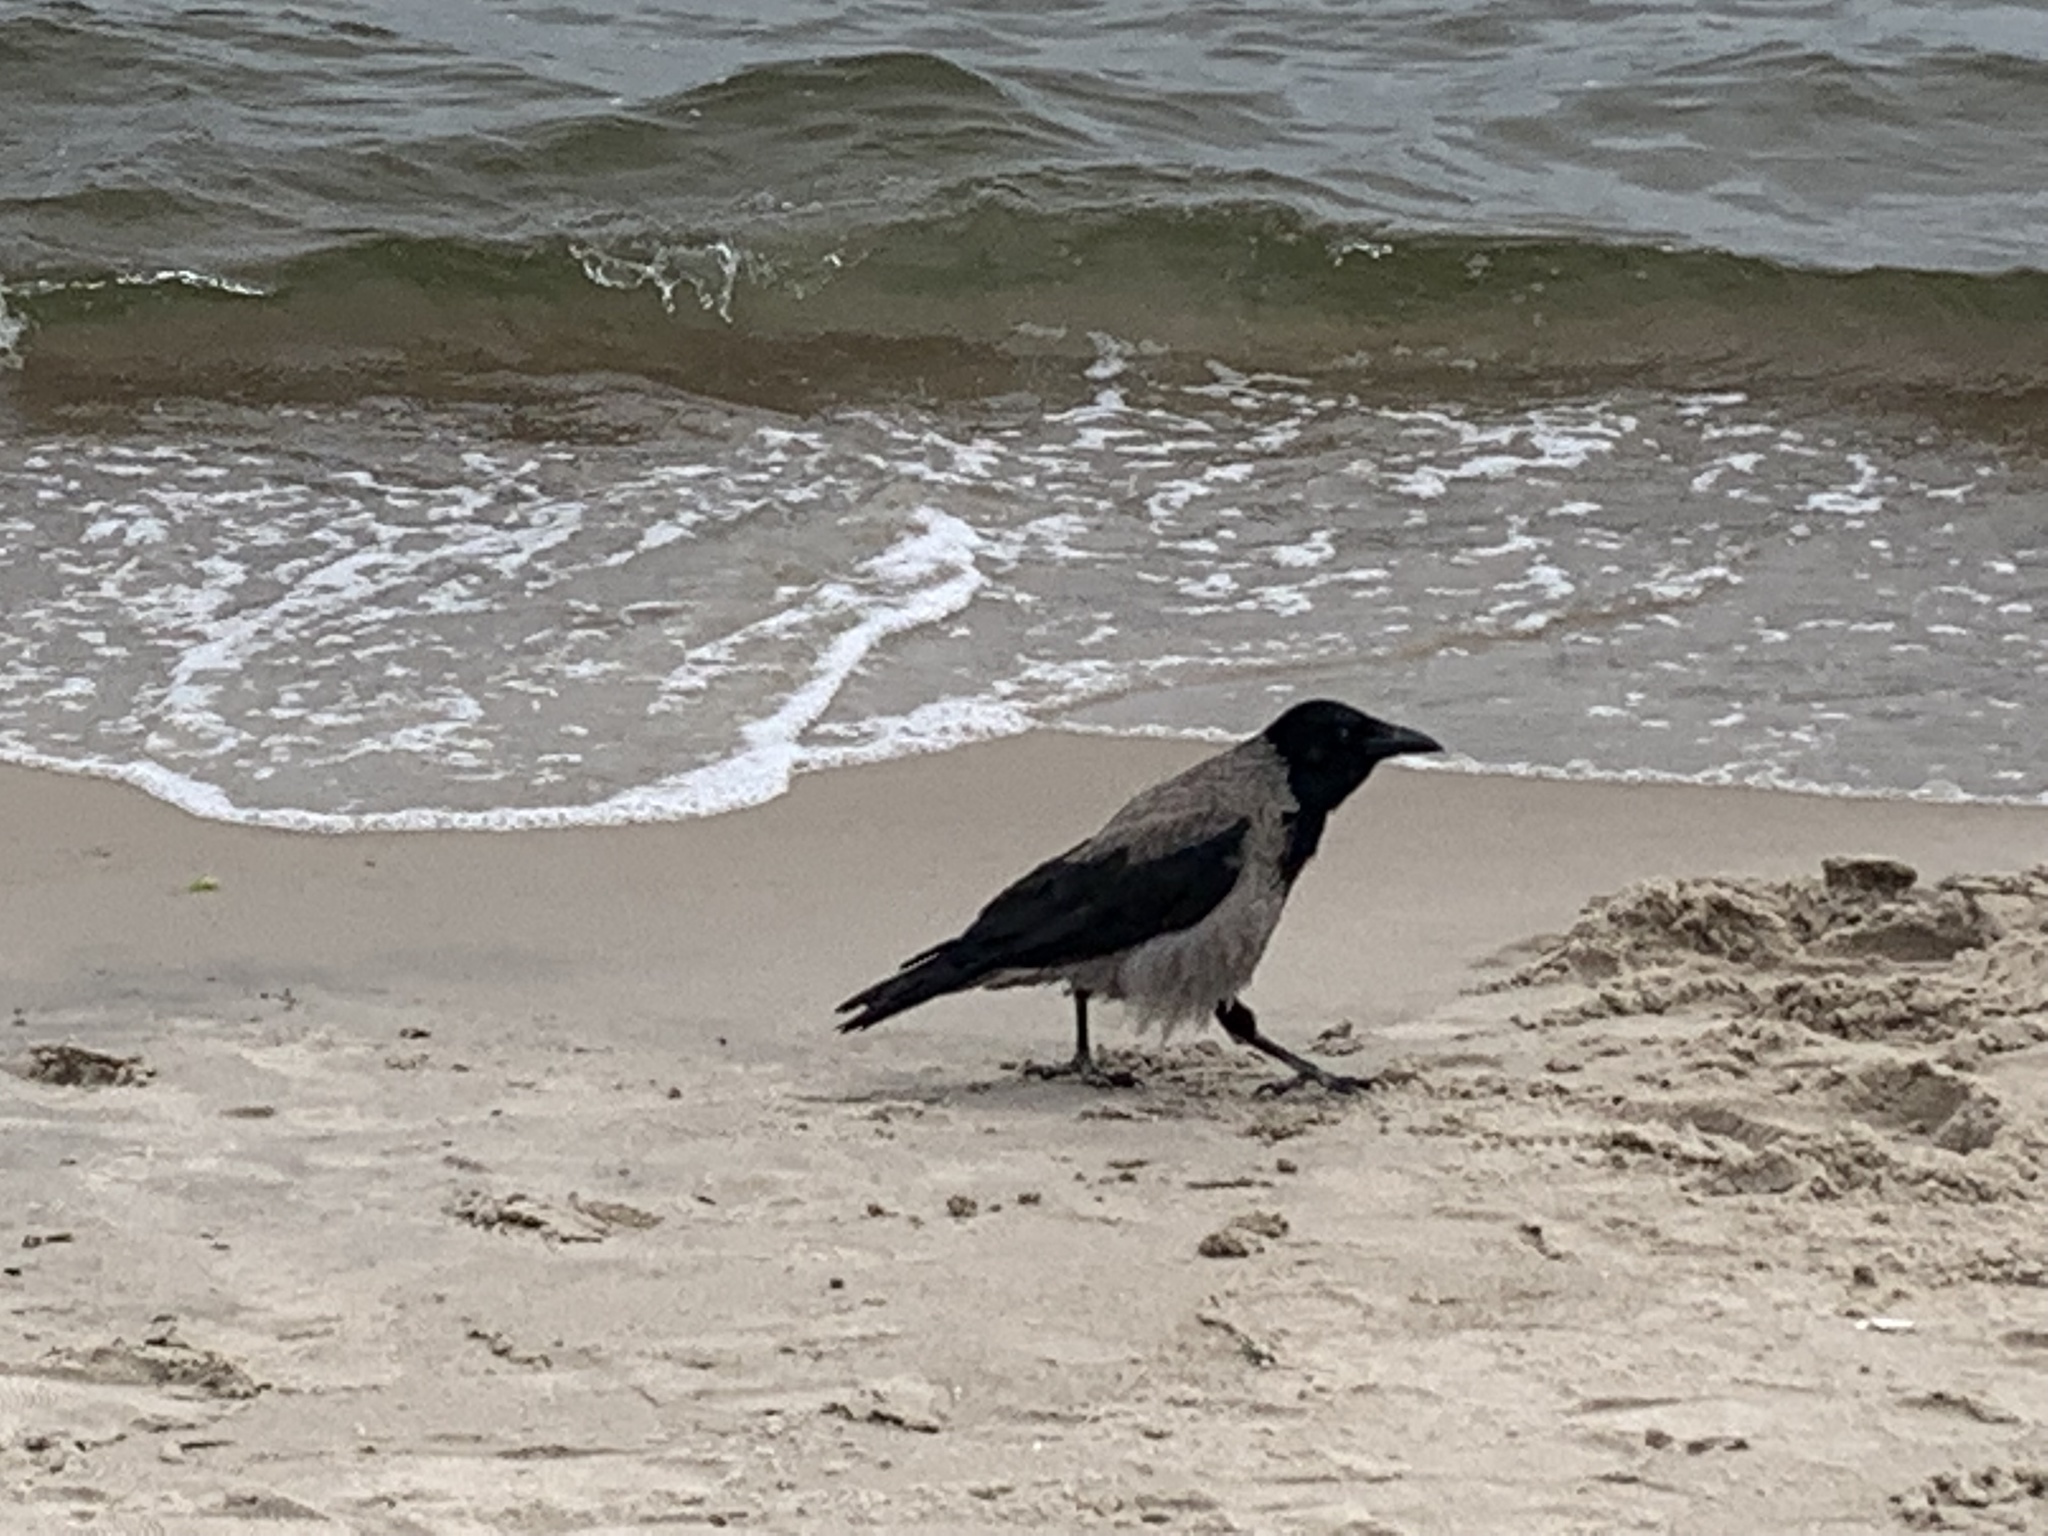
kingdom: Animalia
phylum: Chordata
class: Aves
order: Passeriformes
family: Corvidae
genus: Corvus
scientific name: Corvus cornix
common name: Hooded crow
